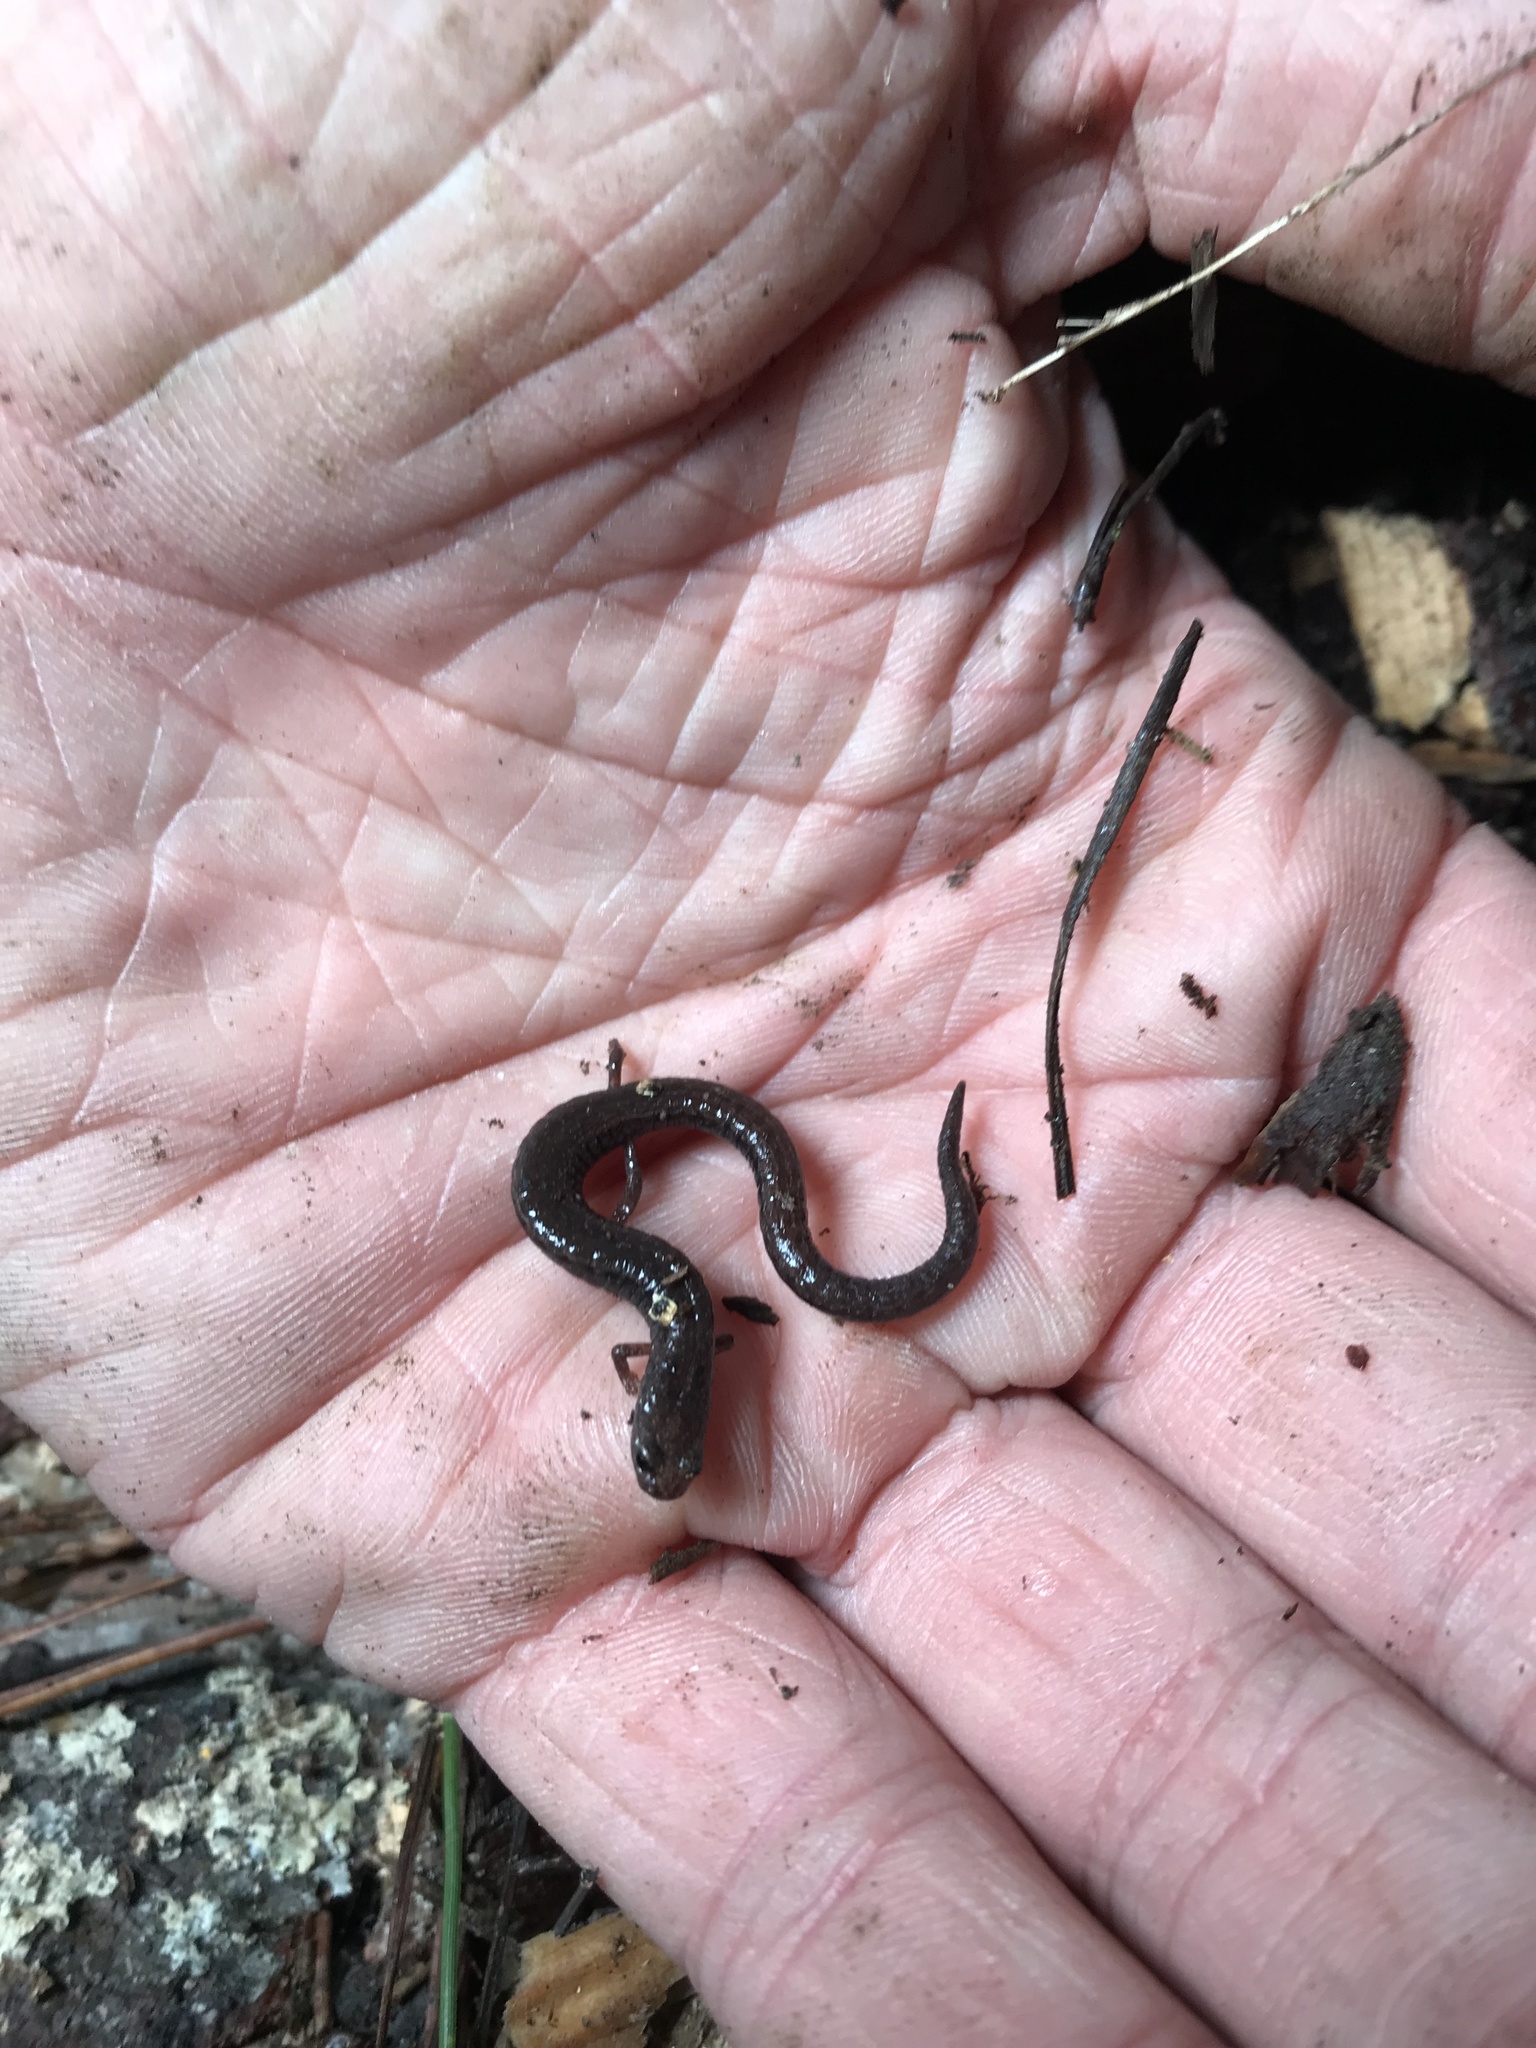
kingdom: Animalia
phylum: Chordata
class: Amphibia
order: Caudata
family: Plethodontidae
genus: Batrachoseps
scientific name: Batrachoseps attenuatus
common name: California slender salamander
